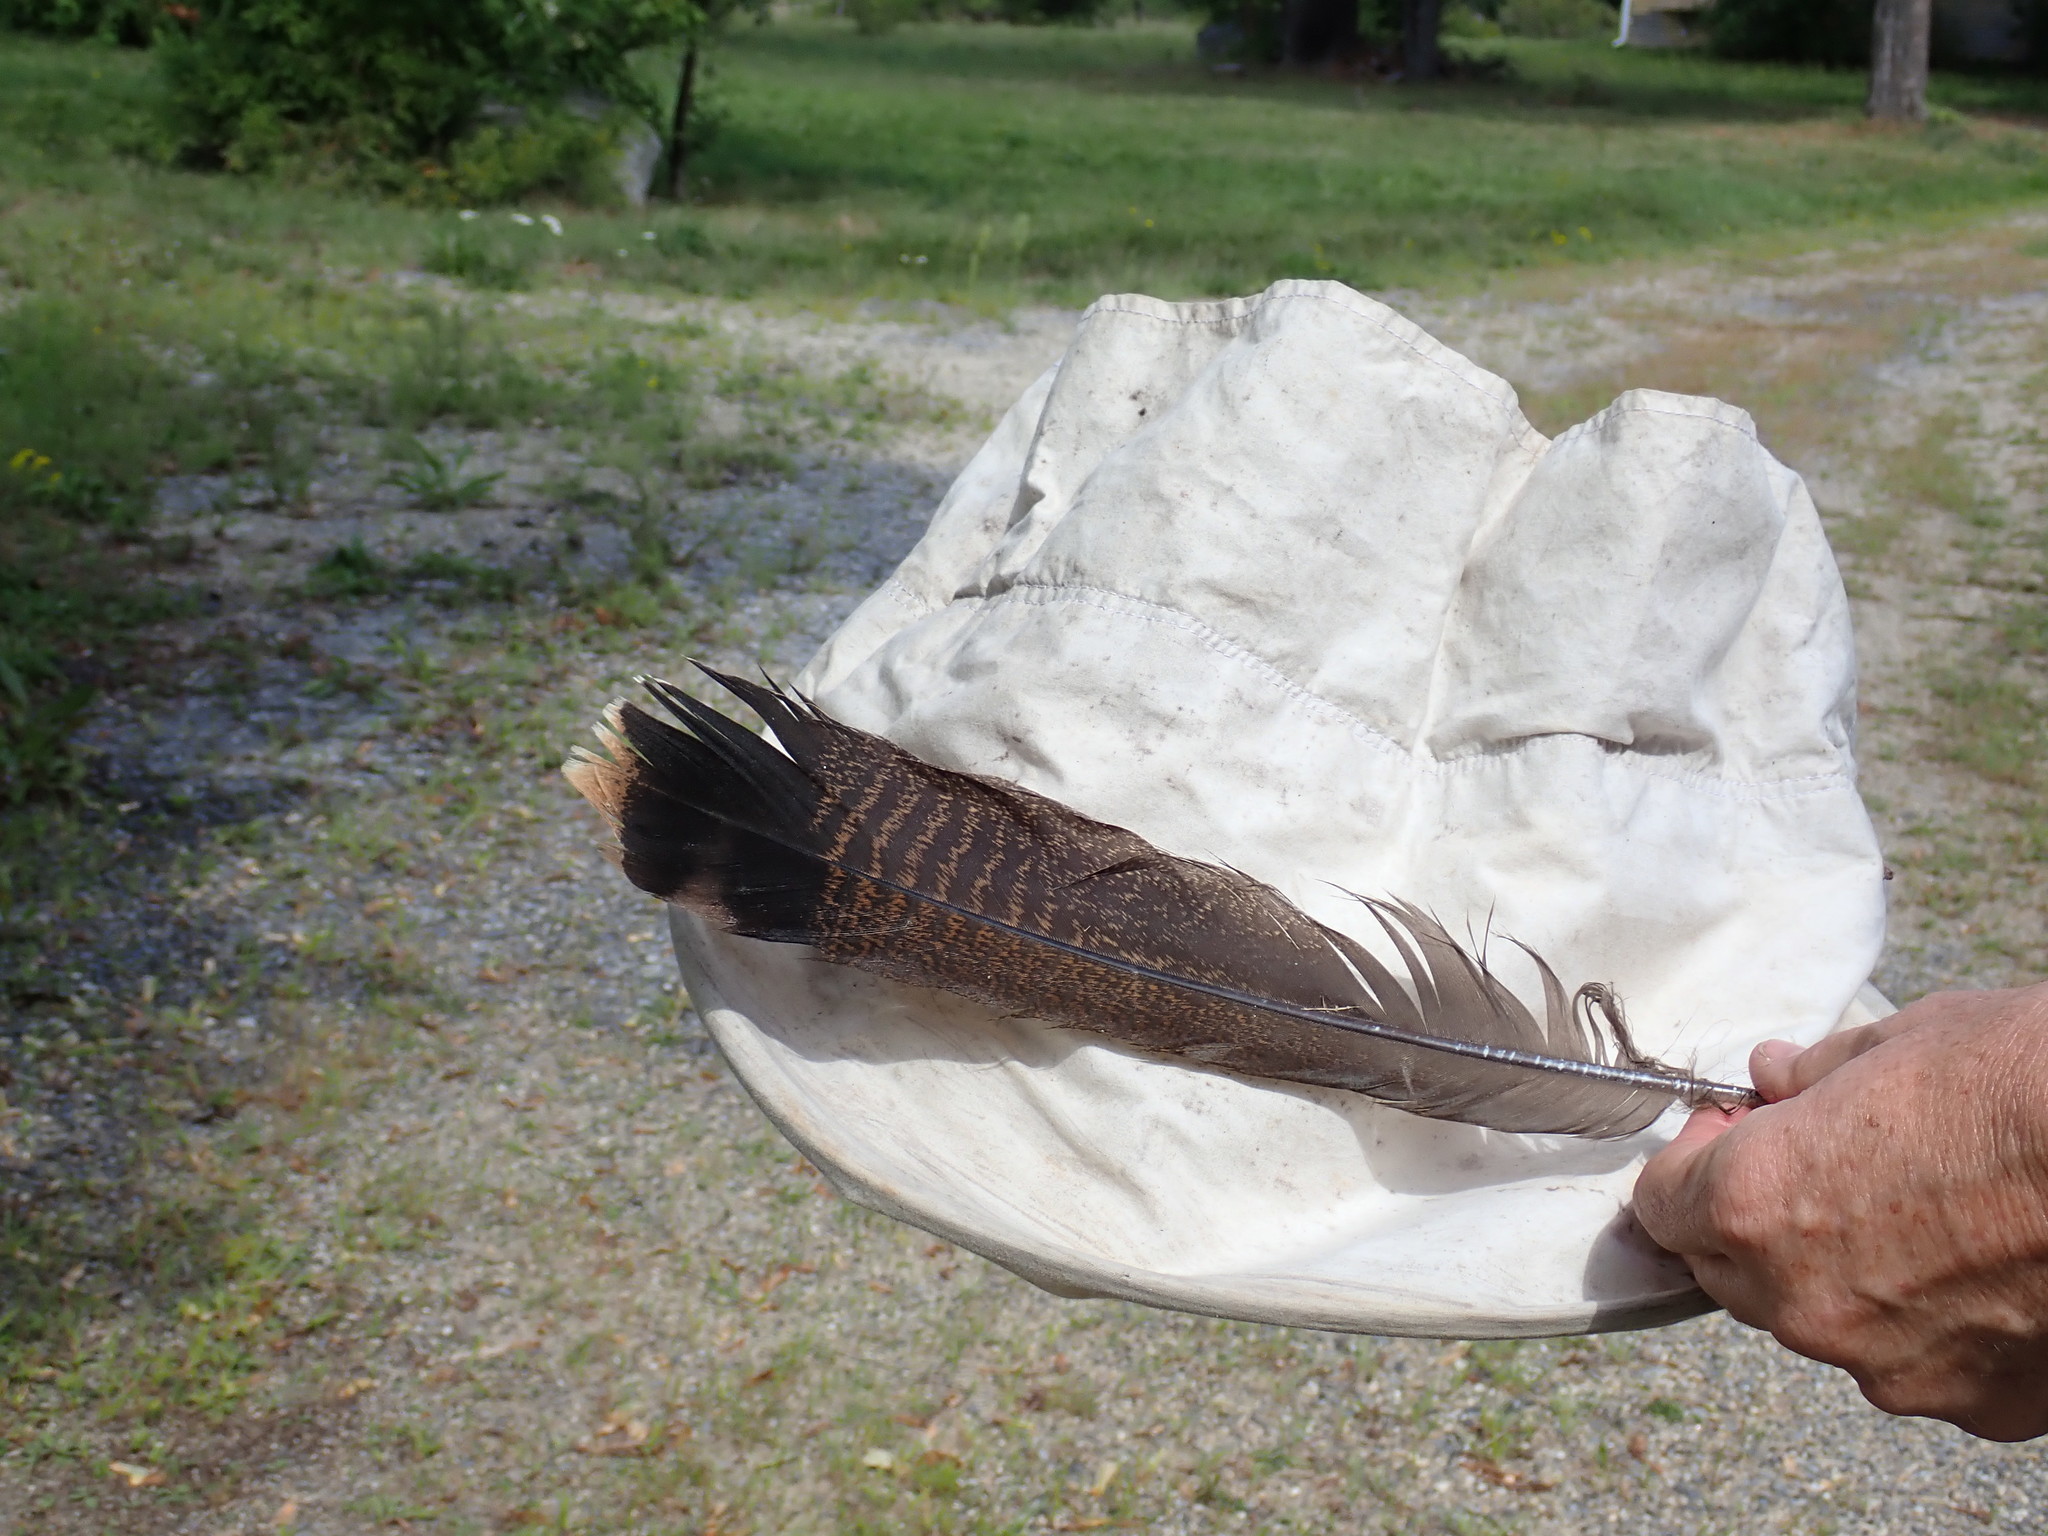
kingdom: Animalia
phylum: Chordata
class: Aves
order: Galliformes
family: Phasianidae
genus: Meleagris
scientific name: Meleagris gallopavo
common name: Wild turkey
